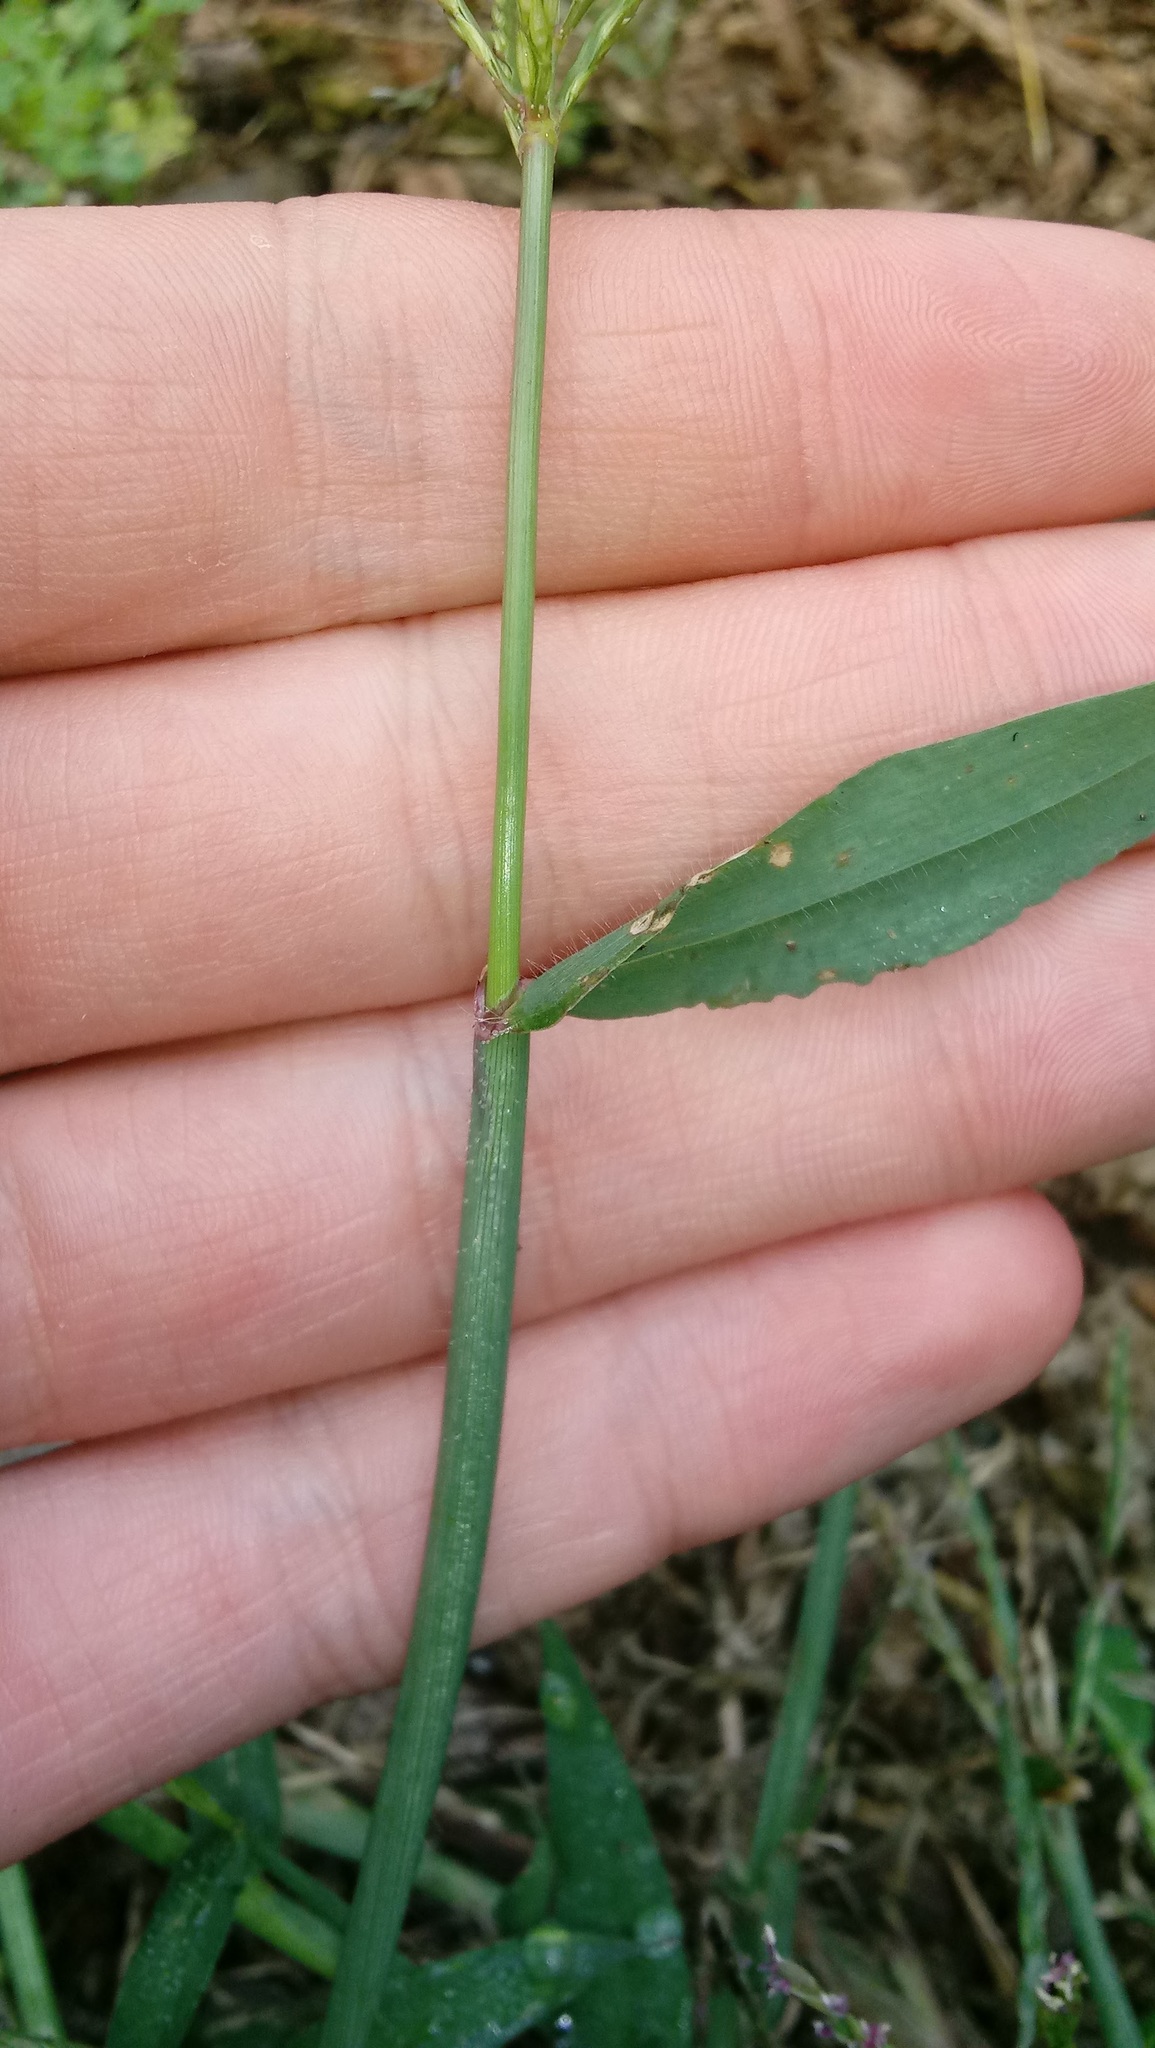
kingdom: Plantae
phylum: Tracheophyta
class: Liliopsida
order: Poales
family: Poaceae
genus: Digitaria
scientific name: Digitaria sanguinalis
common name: Hairy crabgrass
